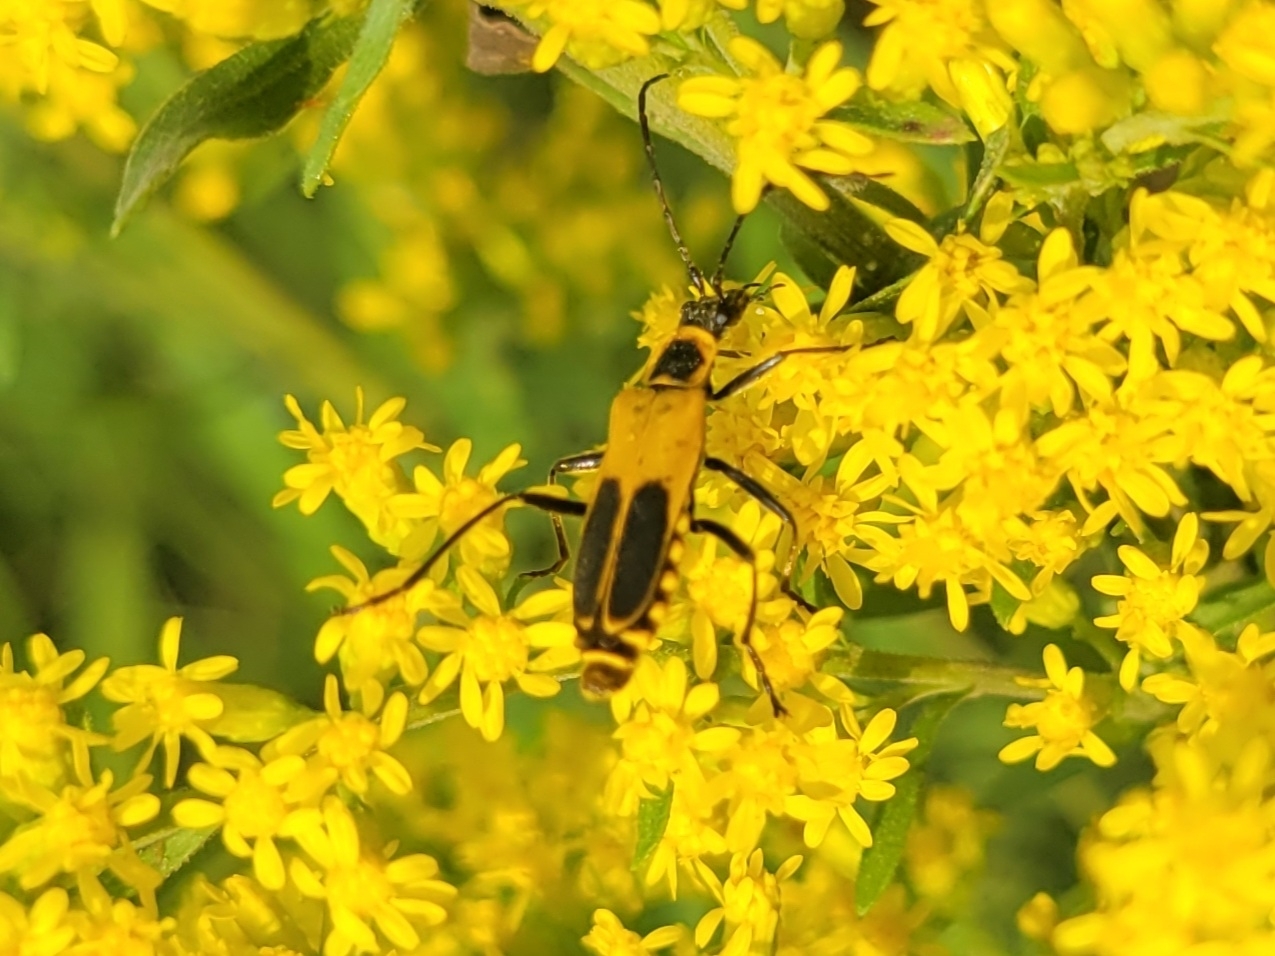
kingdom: Animalia
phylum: Arthropoda
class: Insecta
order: Coleoptera
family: Cantharidae
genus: Chauliognathus
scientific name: Chauliognathus pensylvanicus
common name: Goldenrod soldier beetle
